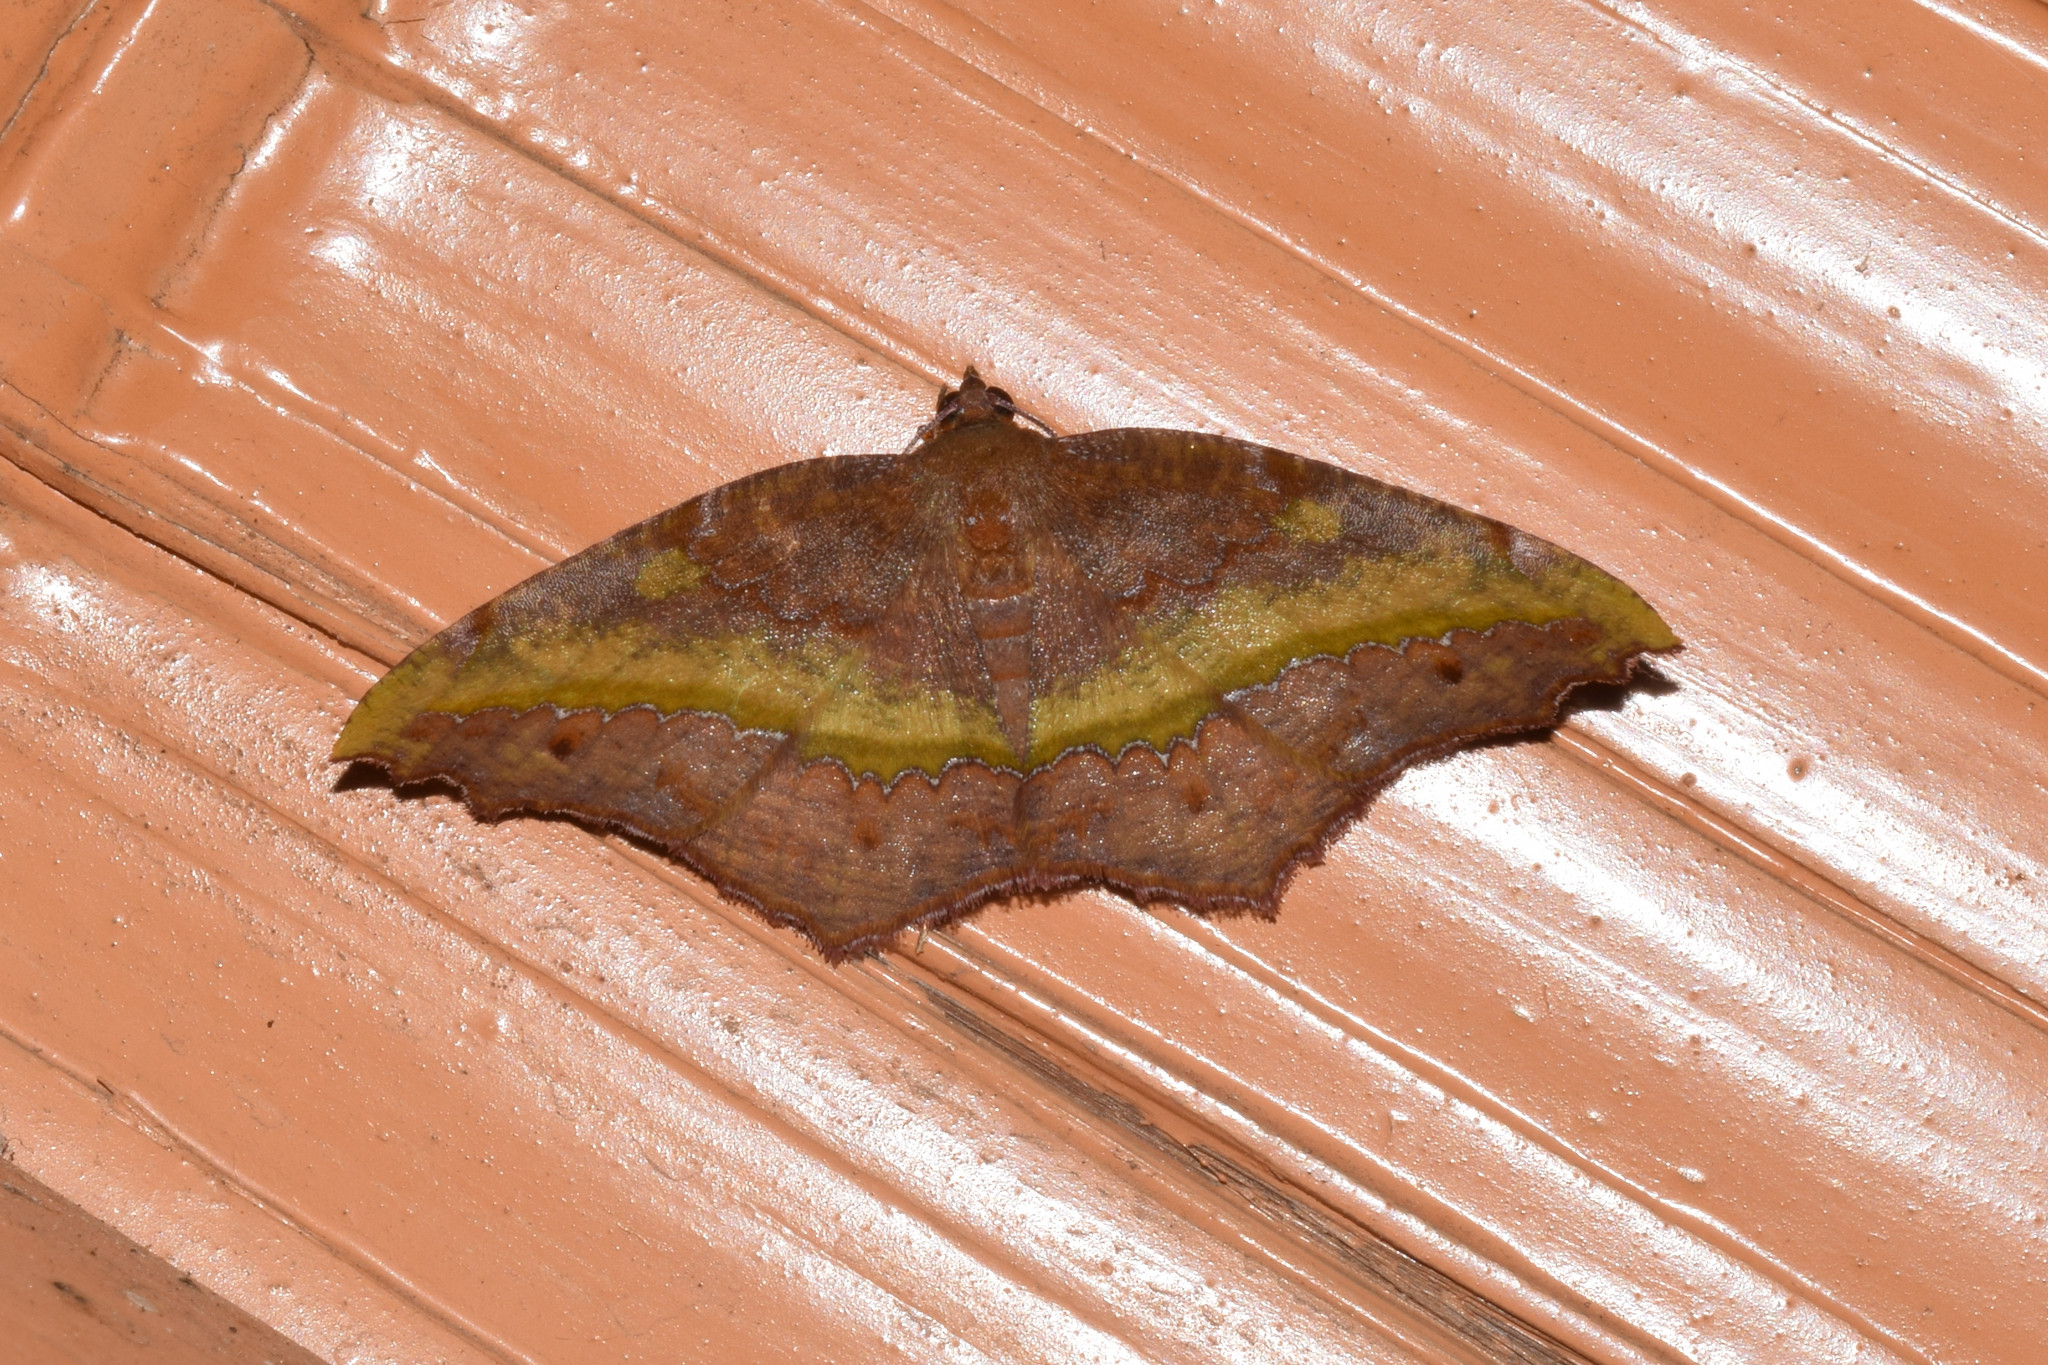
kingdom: Animalia
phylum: Arthropoda
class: Insecta
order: Lepidoptera
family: Geometridae
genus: Leptomiza
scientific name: Leptomiza calcearia
